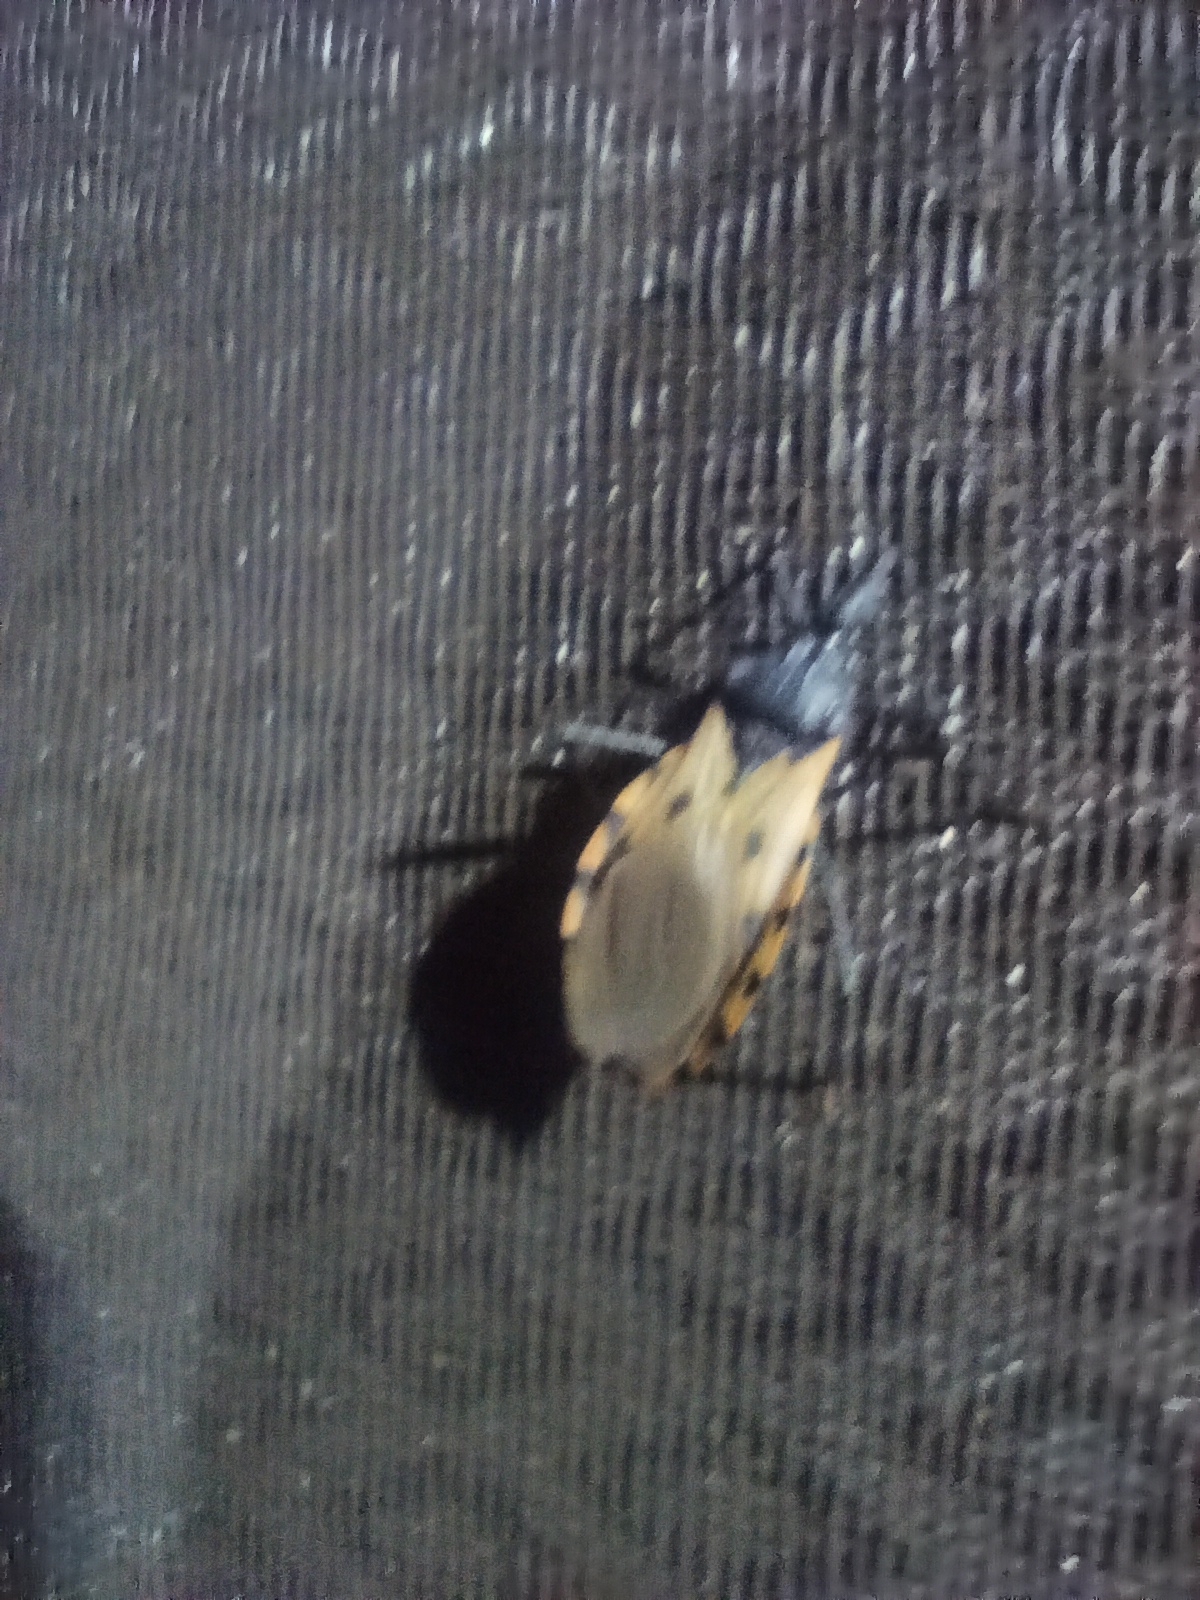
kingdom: Animalia
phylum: Arthropoda
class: Insecta
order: Hemiptera
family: Reduviidae
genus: Meccus
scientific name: Meccus dimidiatus
